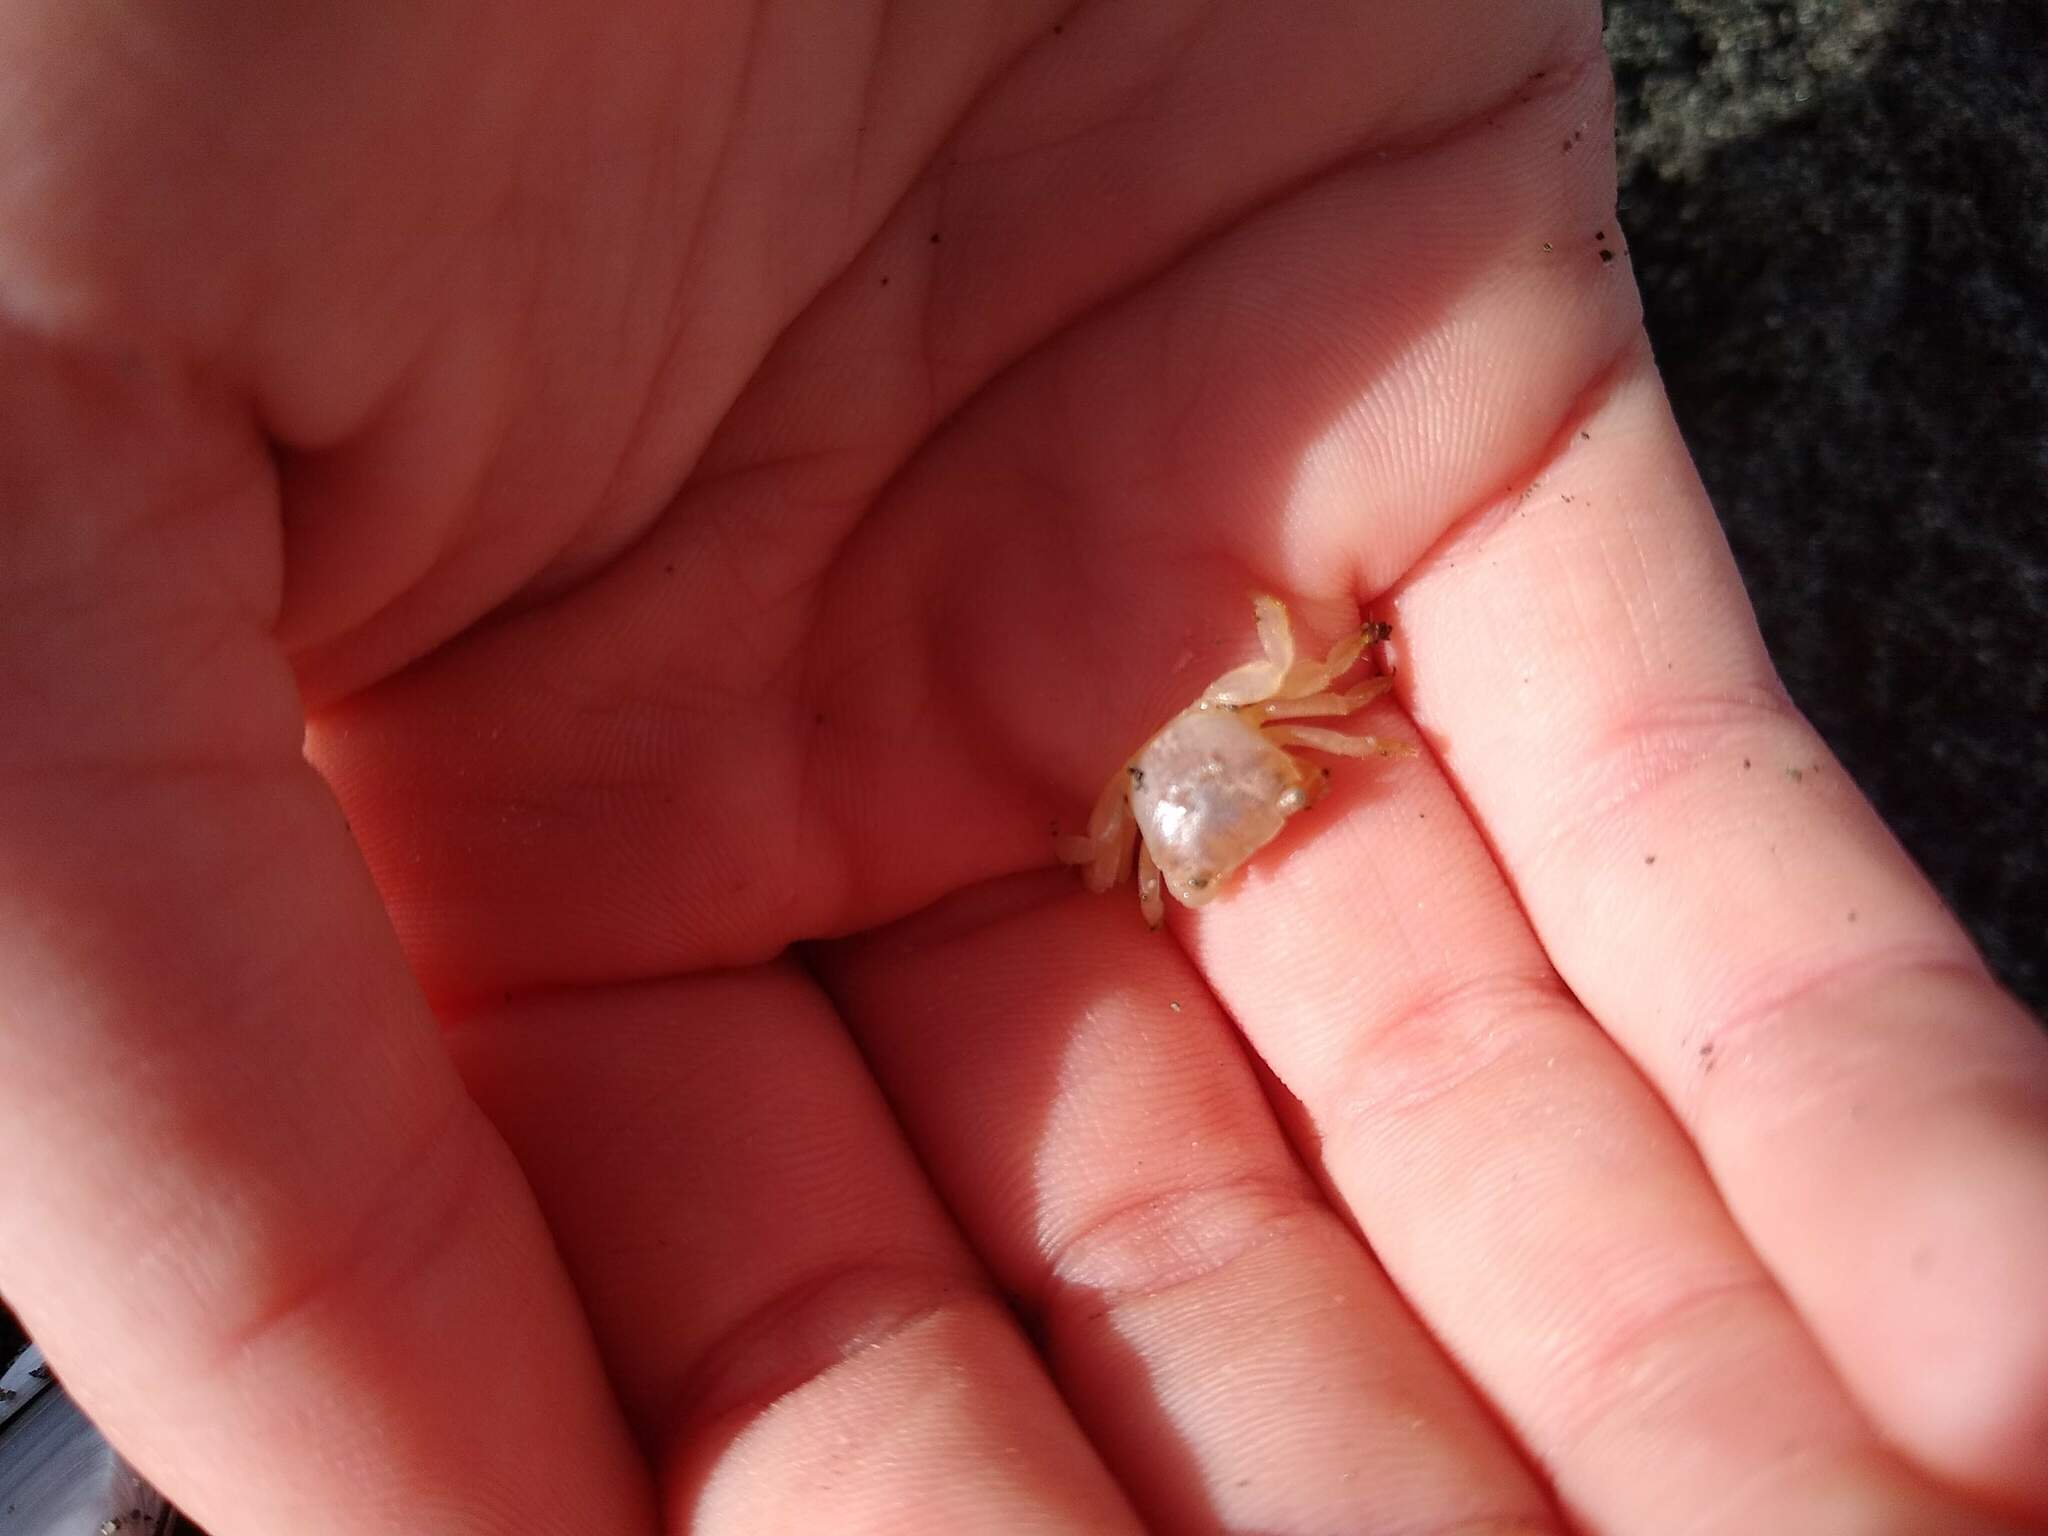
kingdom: Animalia
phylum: Arthropoda
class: Malacostraca
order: Decapoda
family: Grapsidae
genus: Planes
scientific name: Planes minutus
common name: Gulf weed crab
